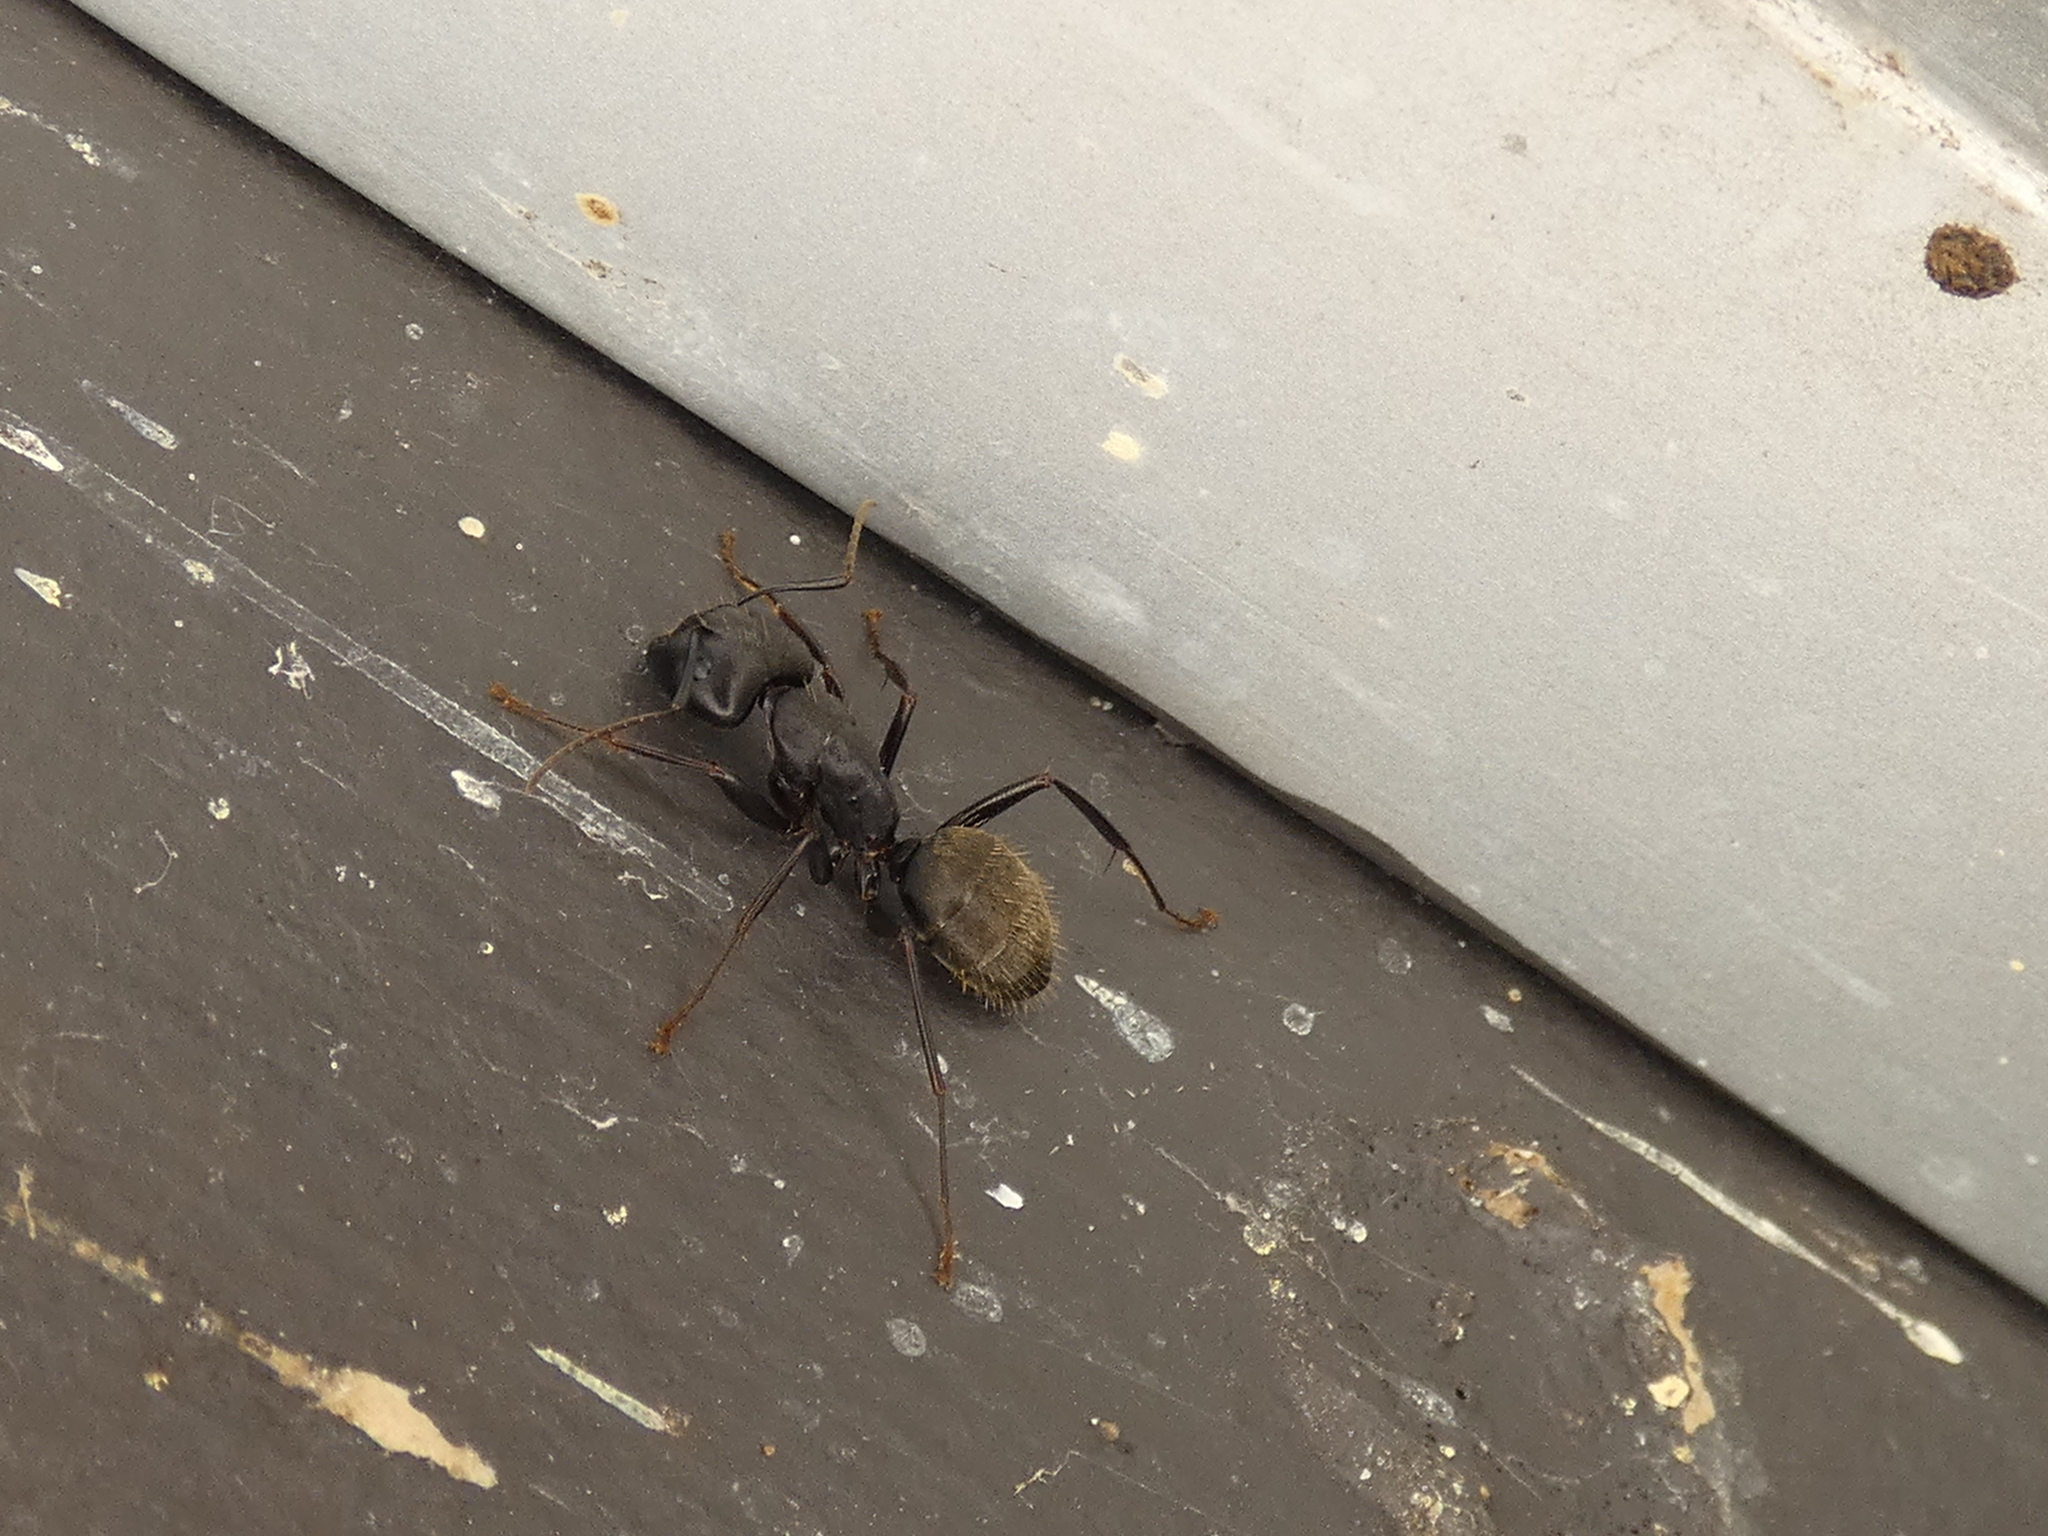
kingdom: Animalia
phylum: Arthropoda
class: Insecta
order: Hymenoptera
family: Formicidae
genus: Camponotus
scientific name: Camponotus pennsylvanicus
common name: Black carpenter ant
